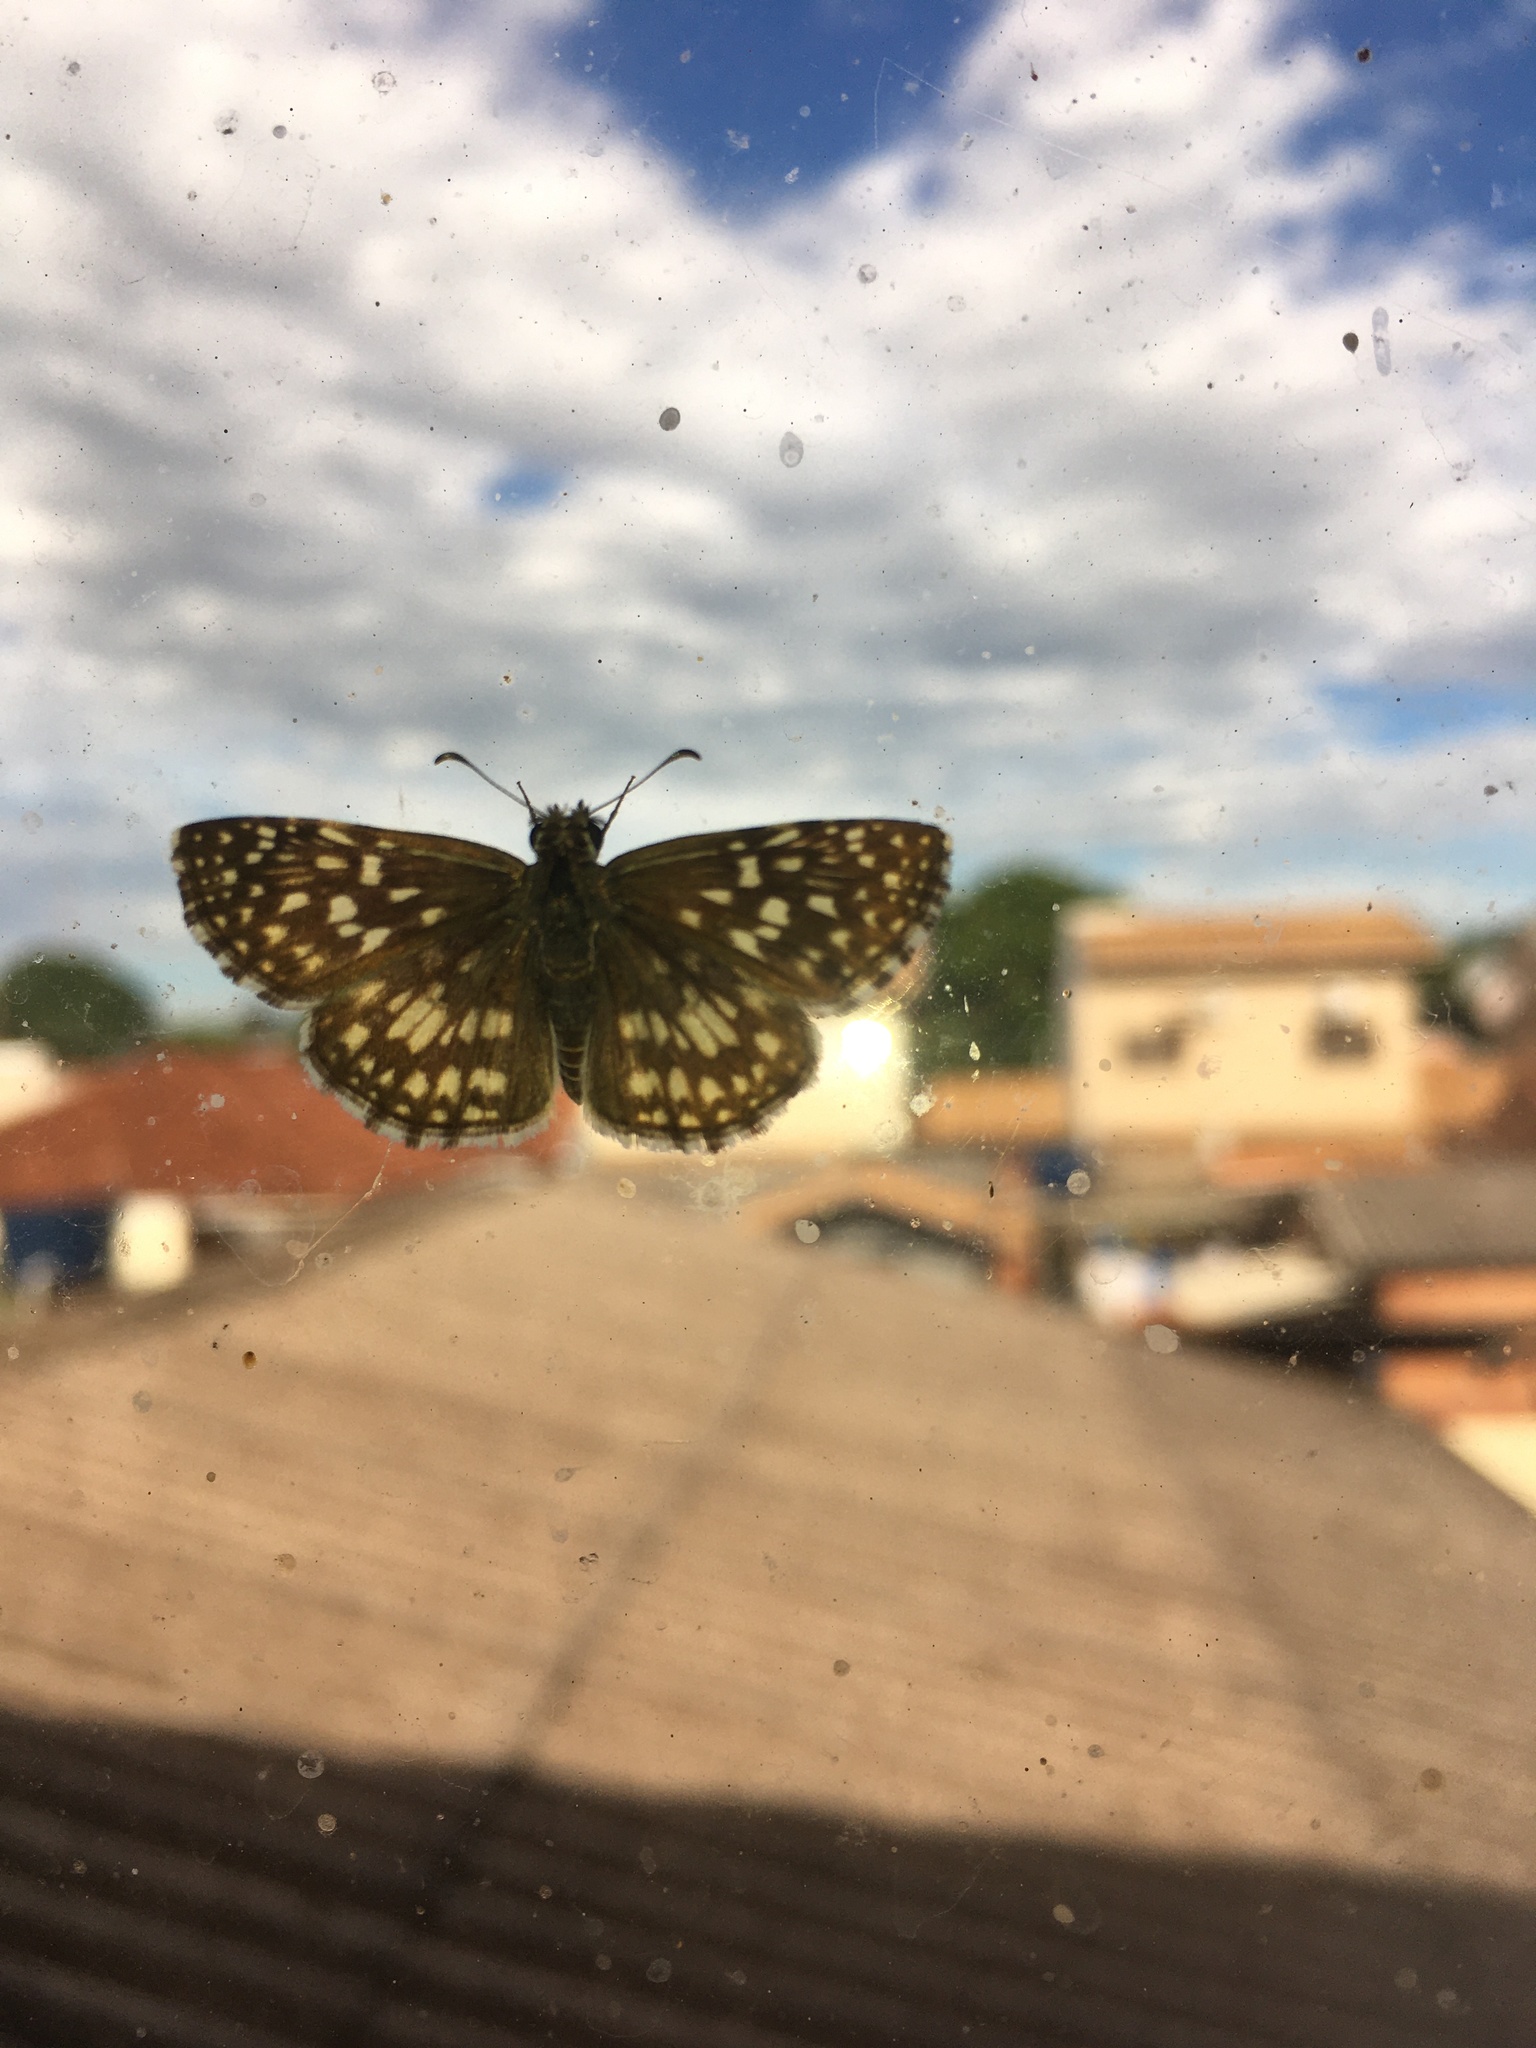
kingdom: Animalia
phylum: Arthropoda
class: Insecta
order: Lepidoptera
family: Hesperiidae
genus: Pyrgus
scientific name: Pyrgus oileus
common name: Tropical checkered-skipper
